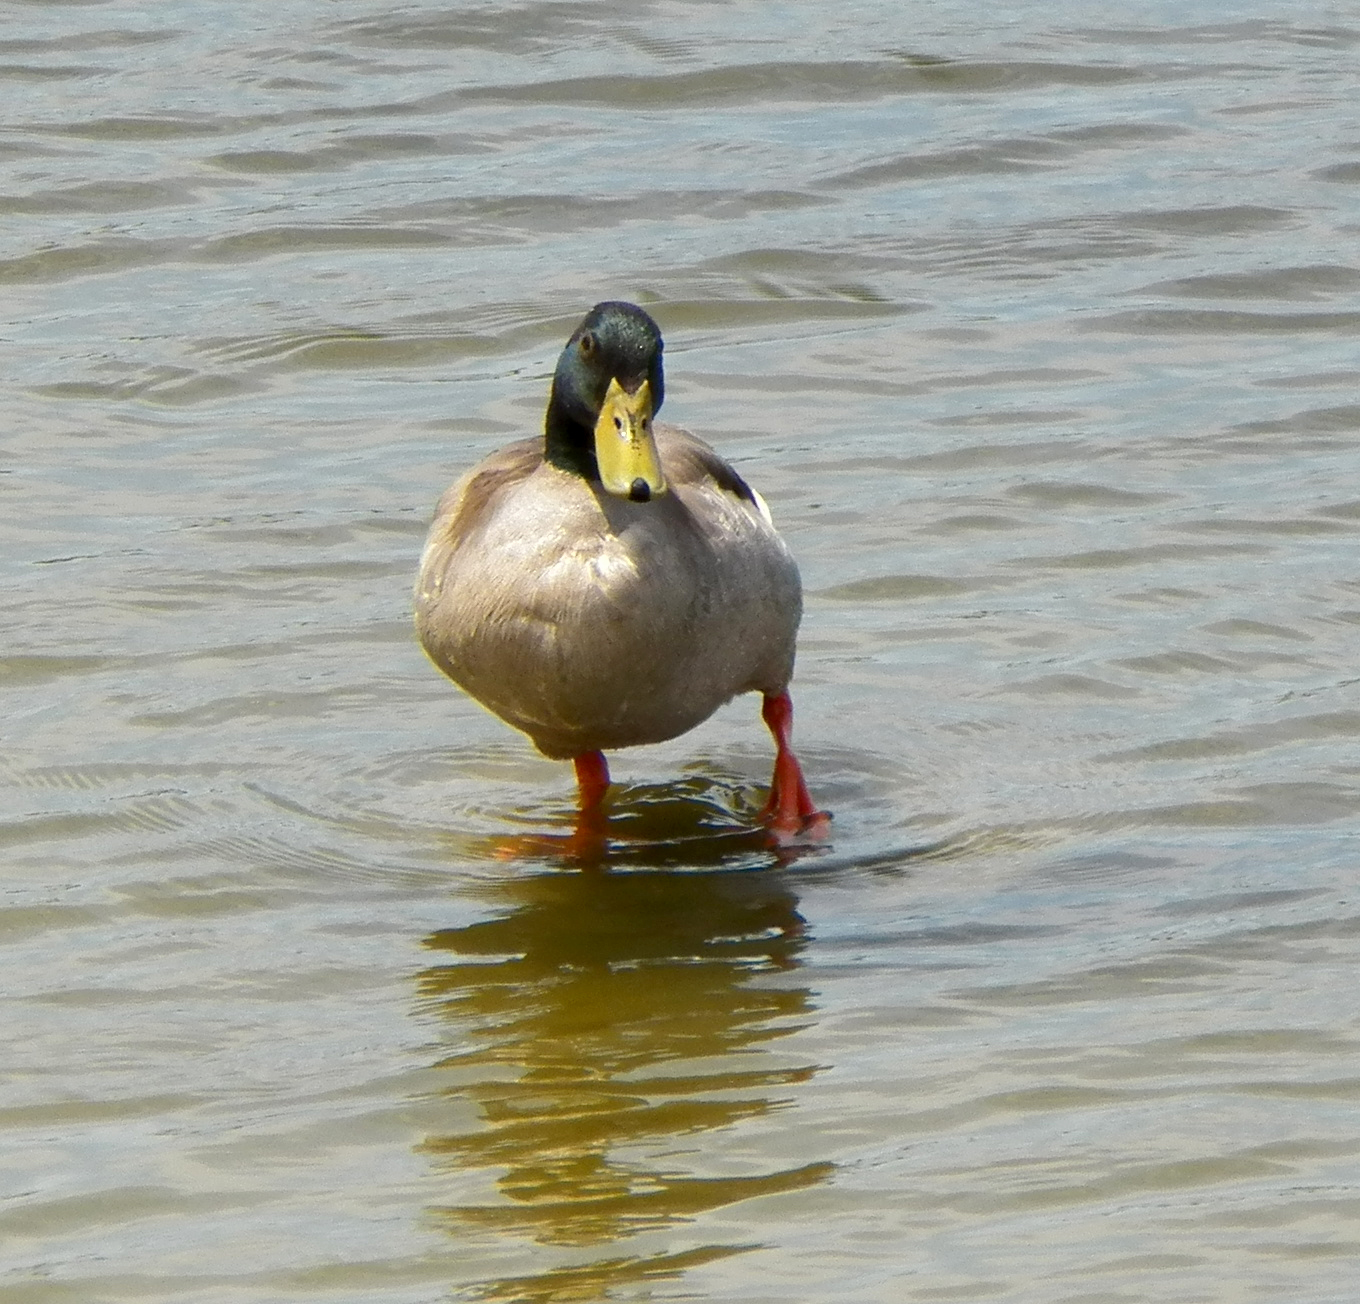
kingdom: Animalia
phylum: Chordata
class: Aves
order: Anseriformes
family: Anatidae
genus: Anas
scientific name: Anas platyrhynchos
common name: Mallard
